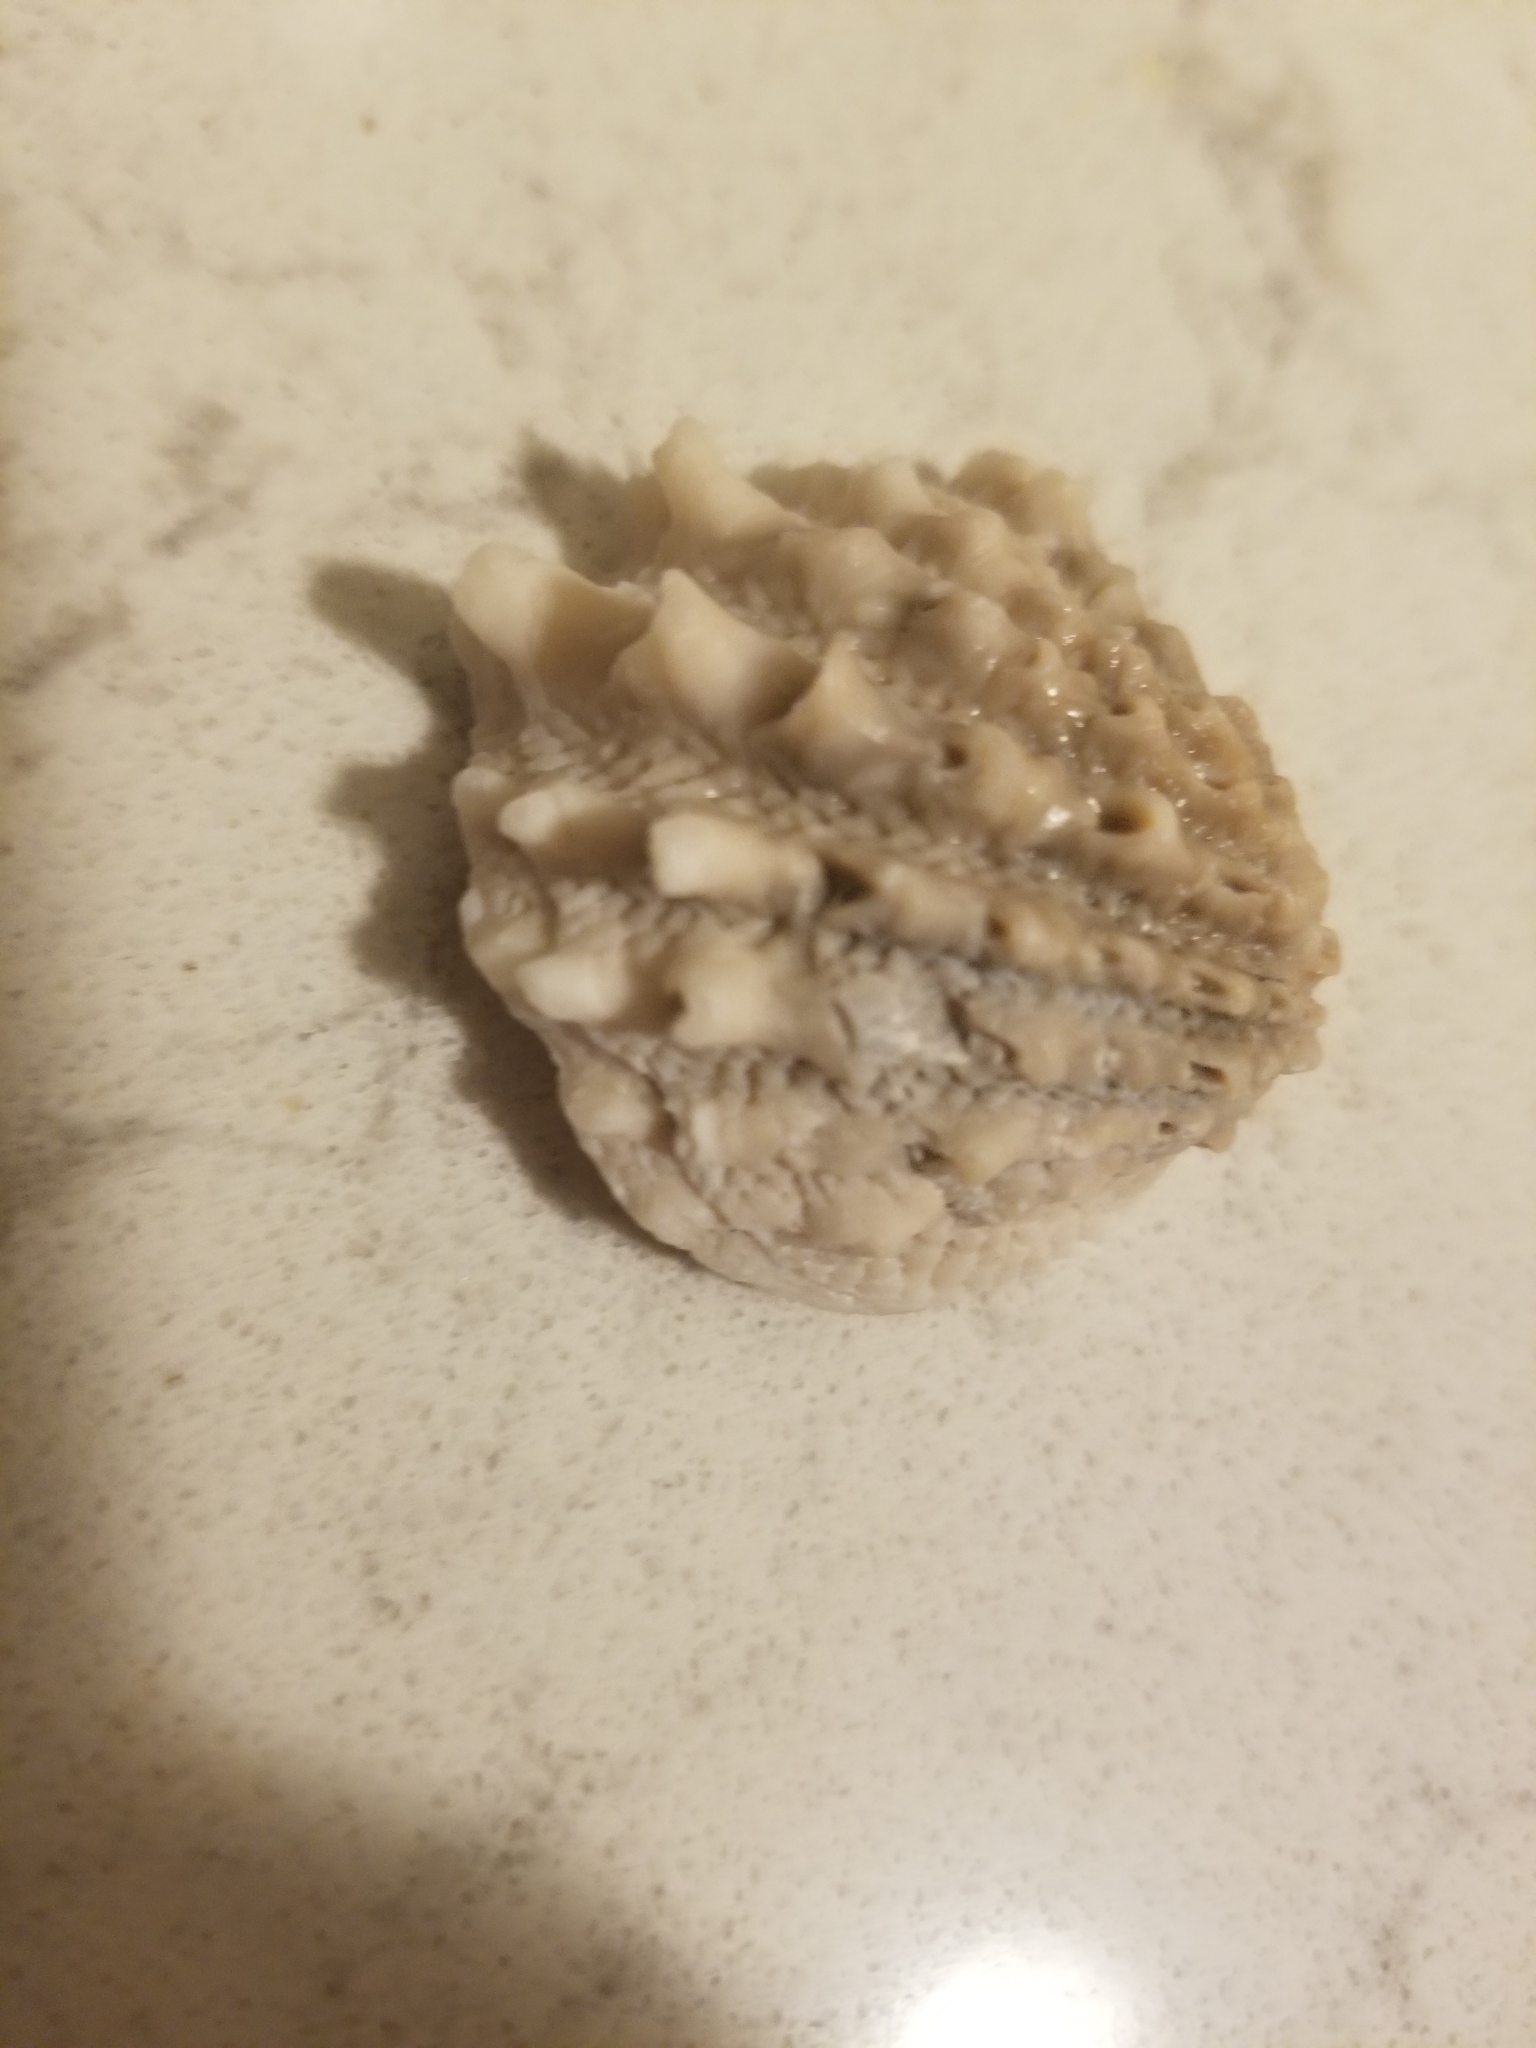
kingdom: Animalia
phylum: Mollusca
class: Bivalvia
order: Venerida
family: Chamidae
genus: Arcinella
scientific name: Arcinella cornuta
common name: Florida spiny jewel box
